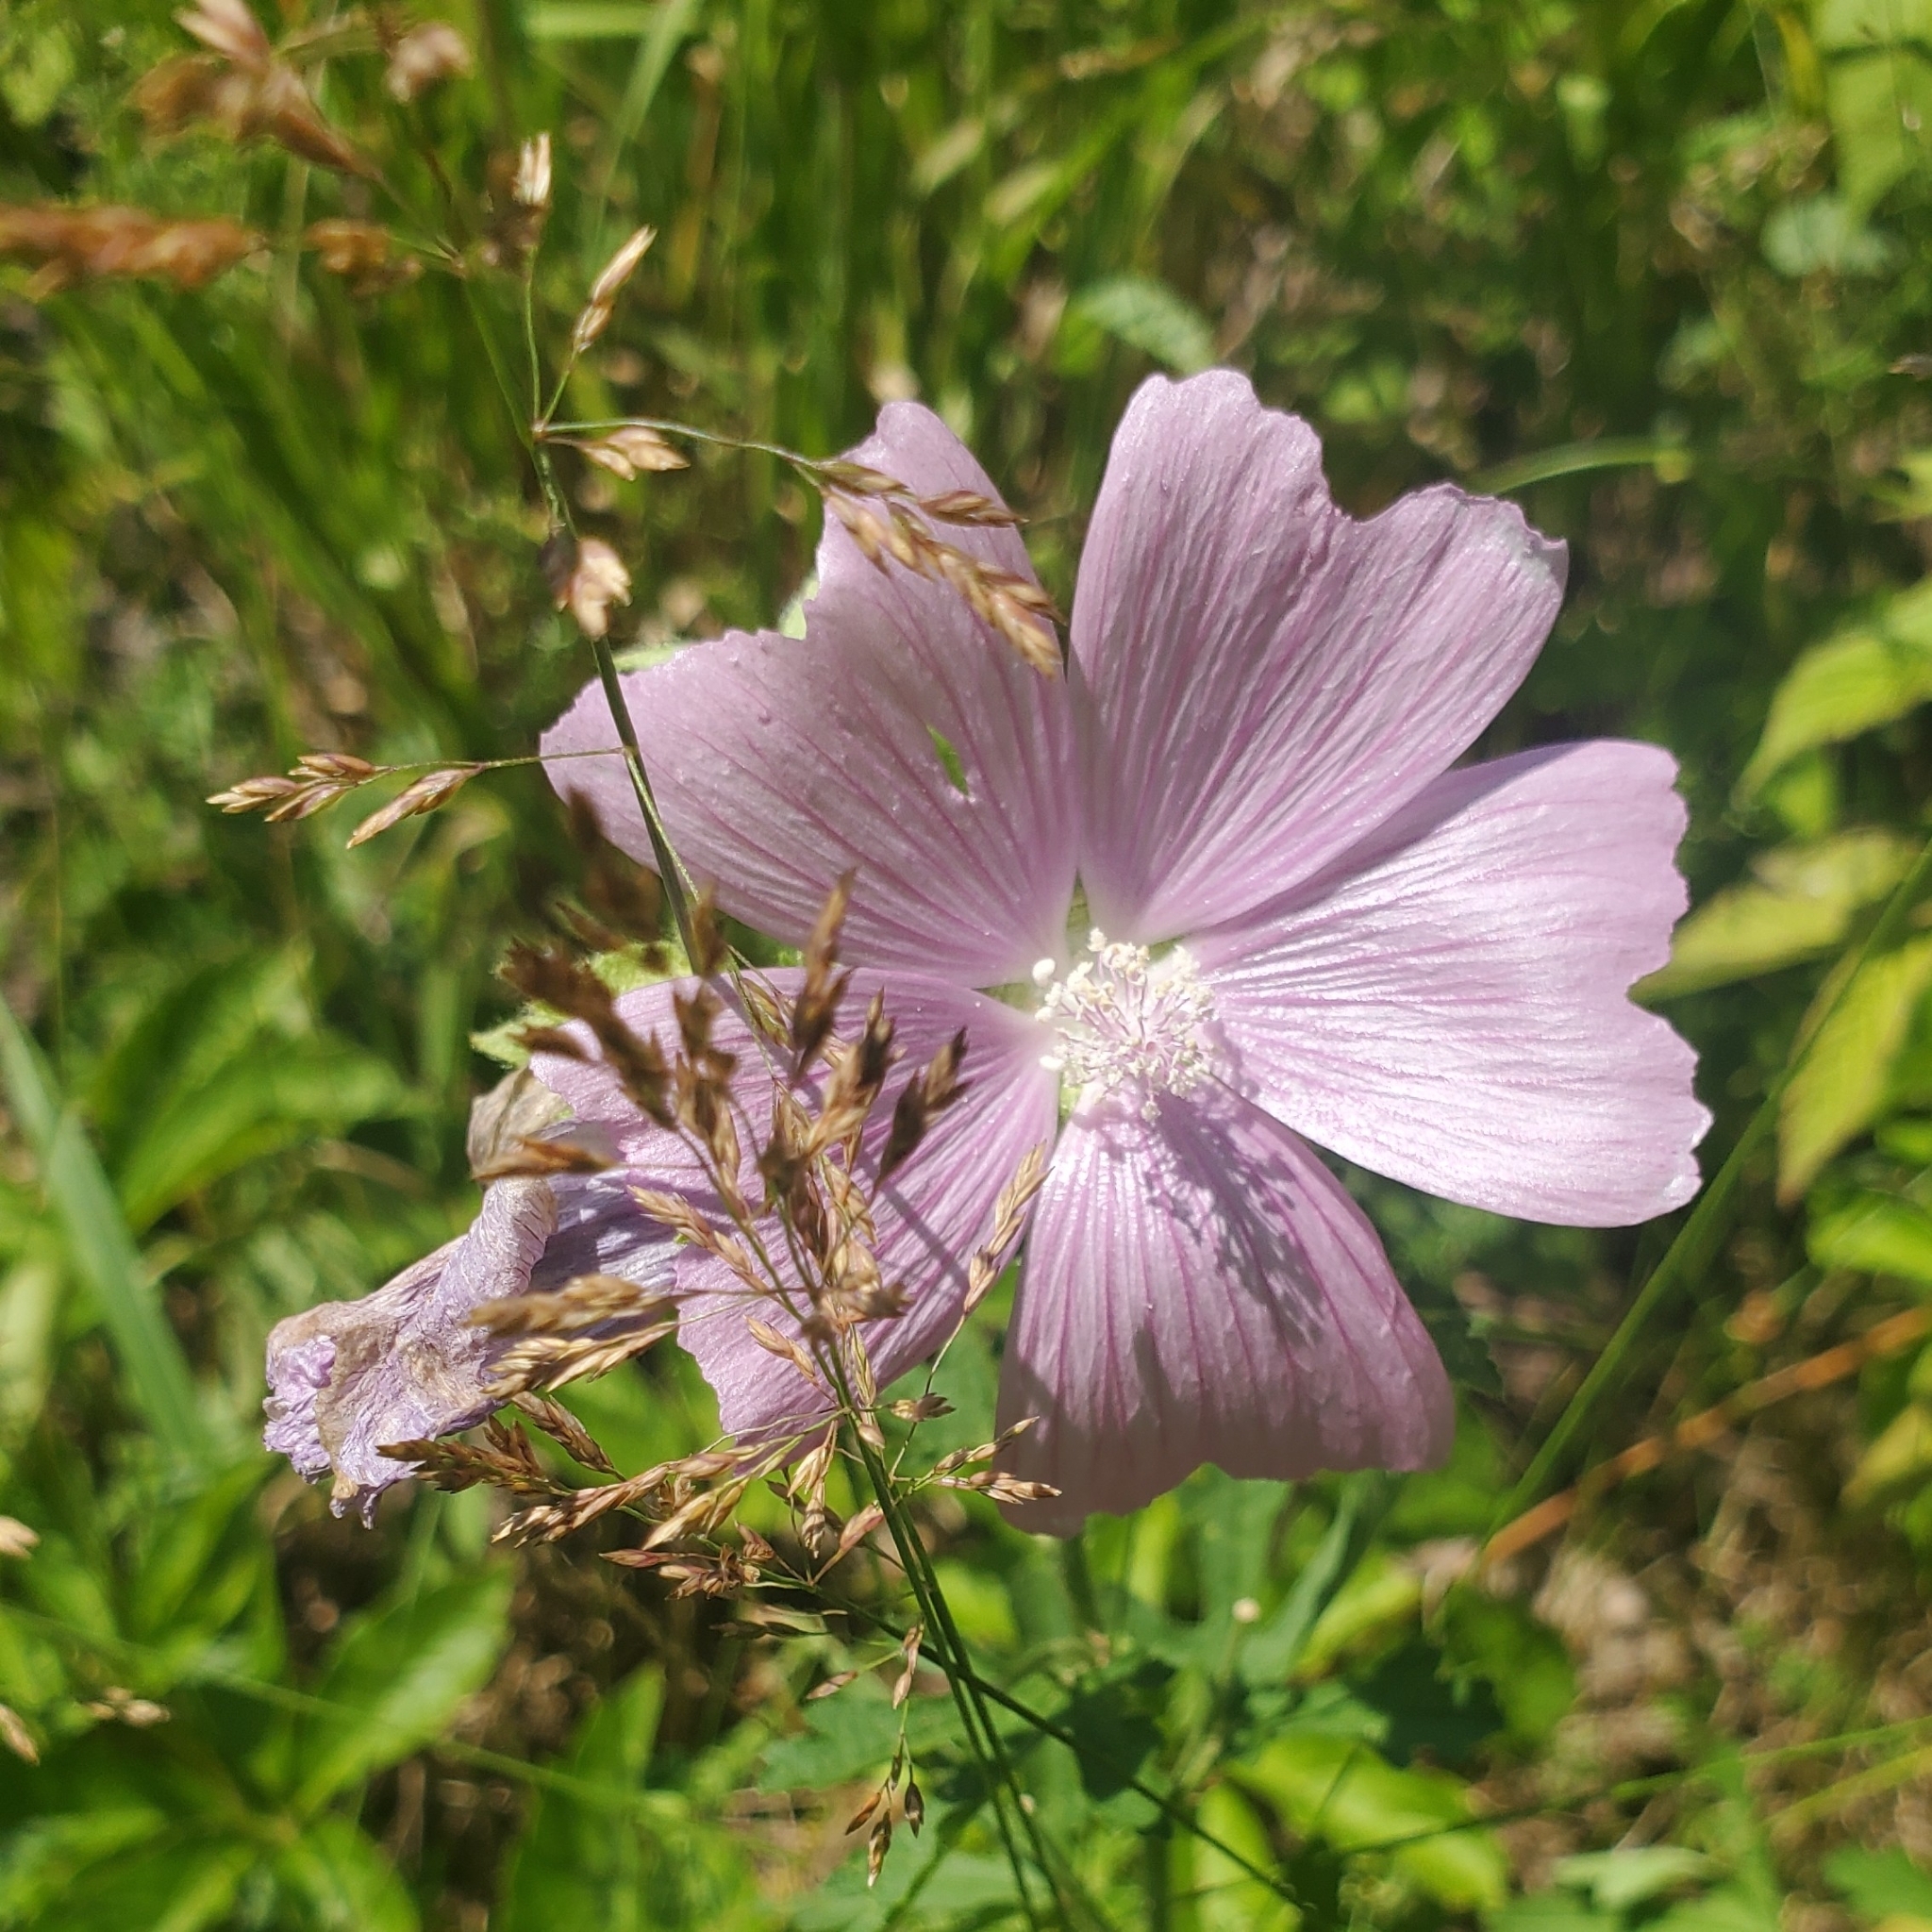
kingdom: Plantae
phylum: Tracheophyta
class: Magnoliopsida
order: Malvales
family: Malvaceae
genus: Malva
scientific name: Malva moschata
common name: Musk mallow
